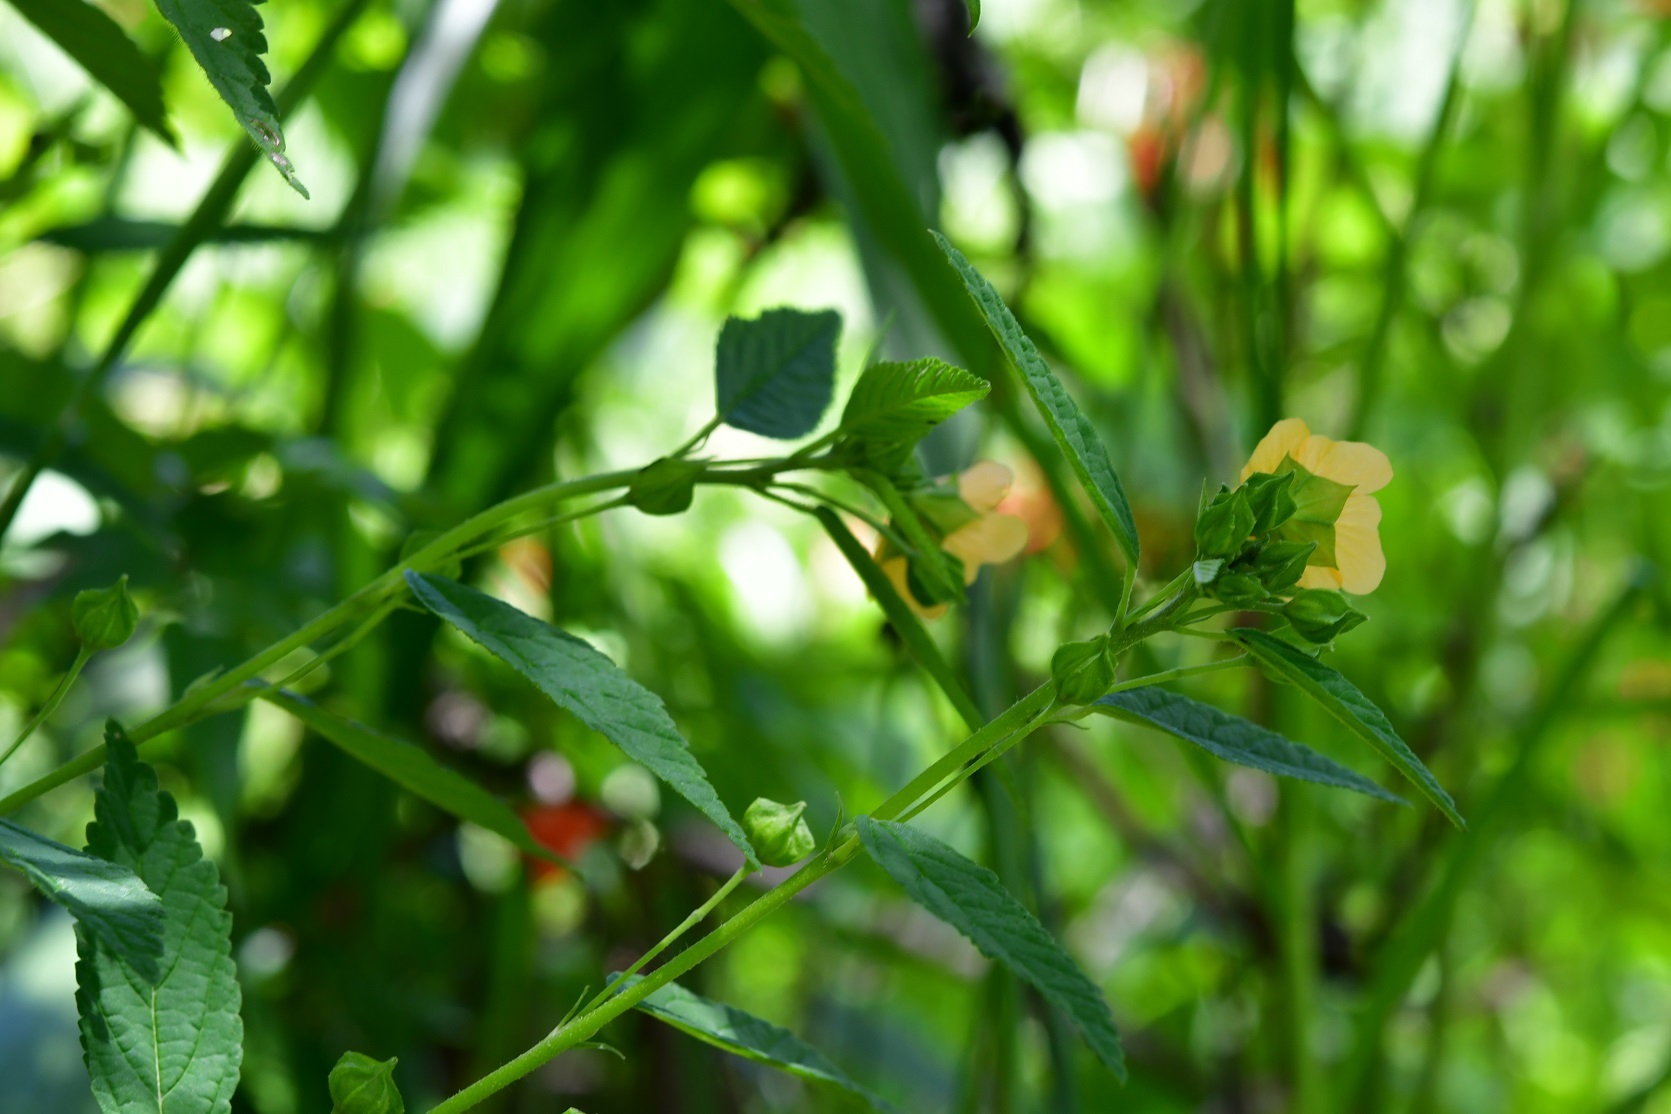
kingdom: Plantae
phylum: Tracheophyta
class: Magnoliopsida
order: Malvales
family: Malvaceae
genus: Sida
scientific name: Sida acuta
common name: Common wireweed
